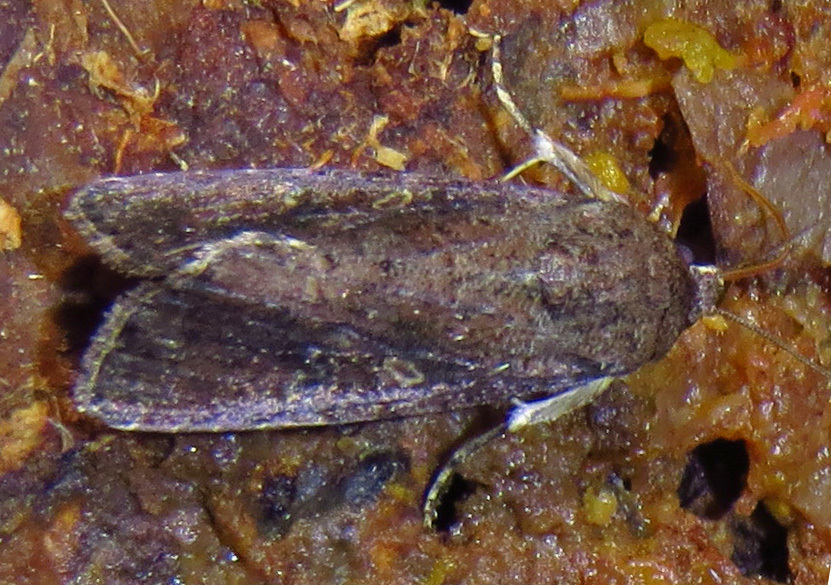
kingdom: Animalia
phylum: Arthropoda
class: Insecta
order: Lepidoptera
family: Noctuidae
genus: Spodoptera
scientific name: Spodoptera frugiperda
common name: Fall armyworm
